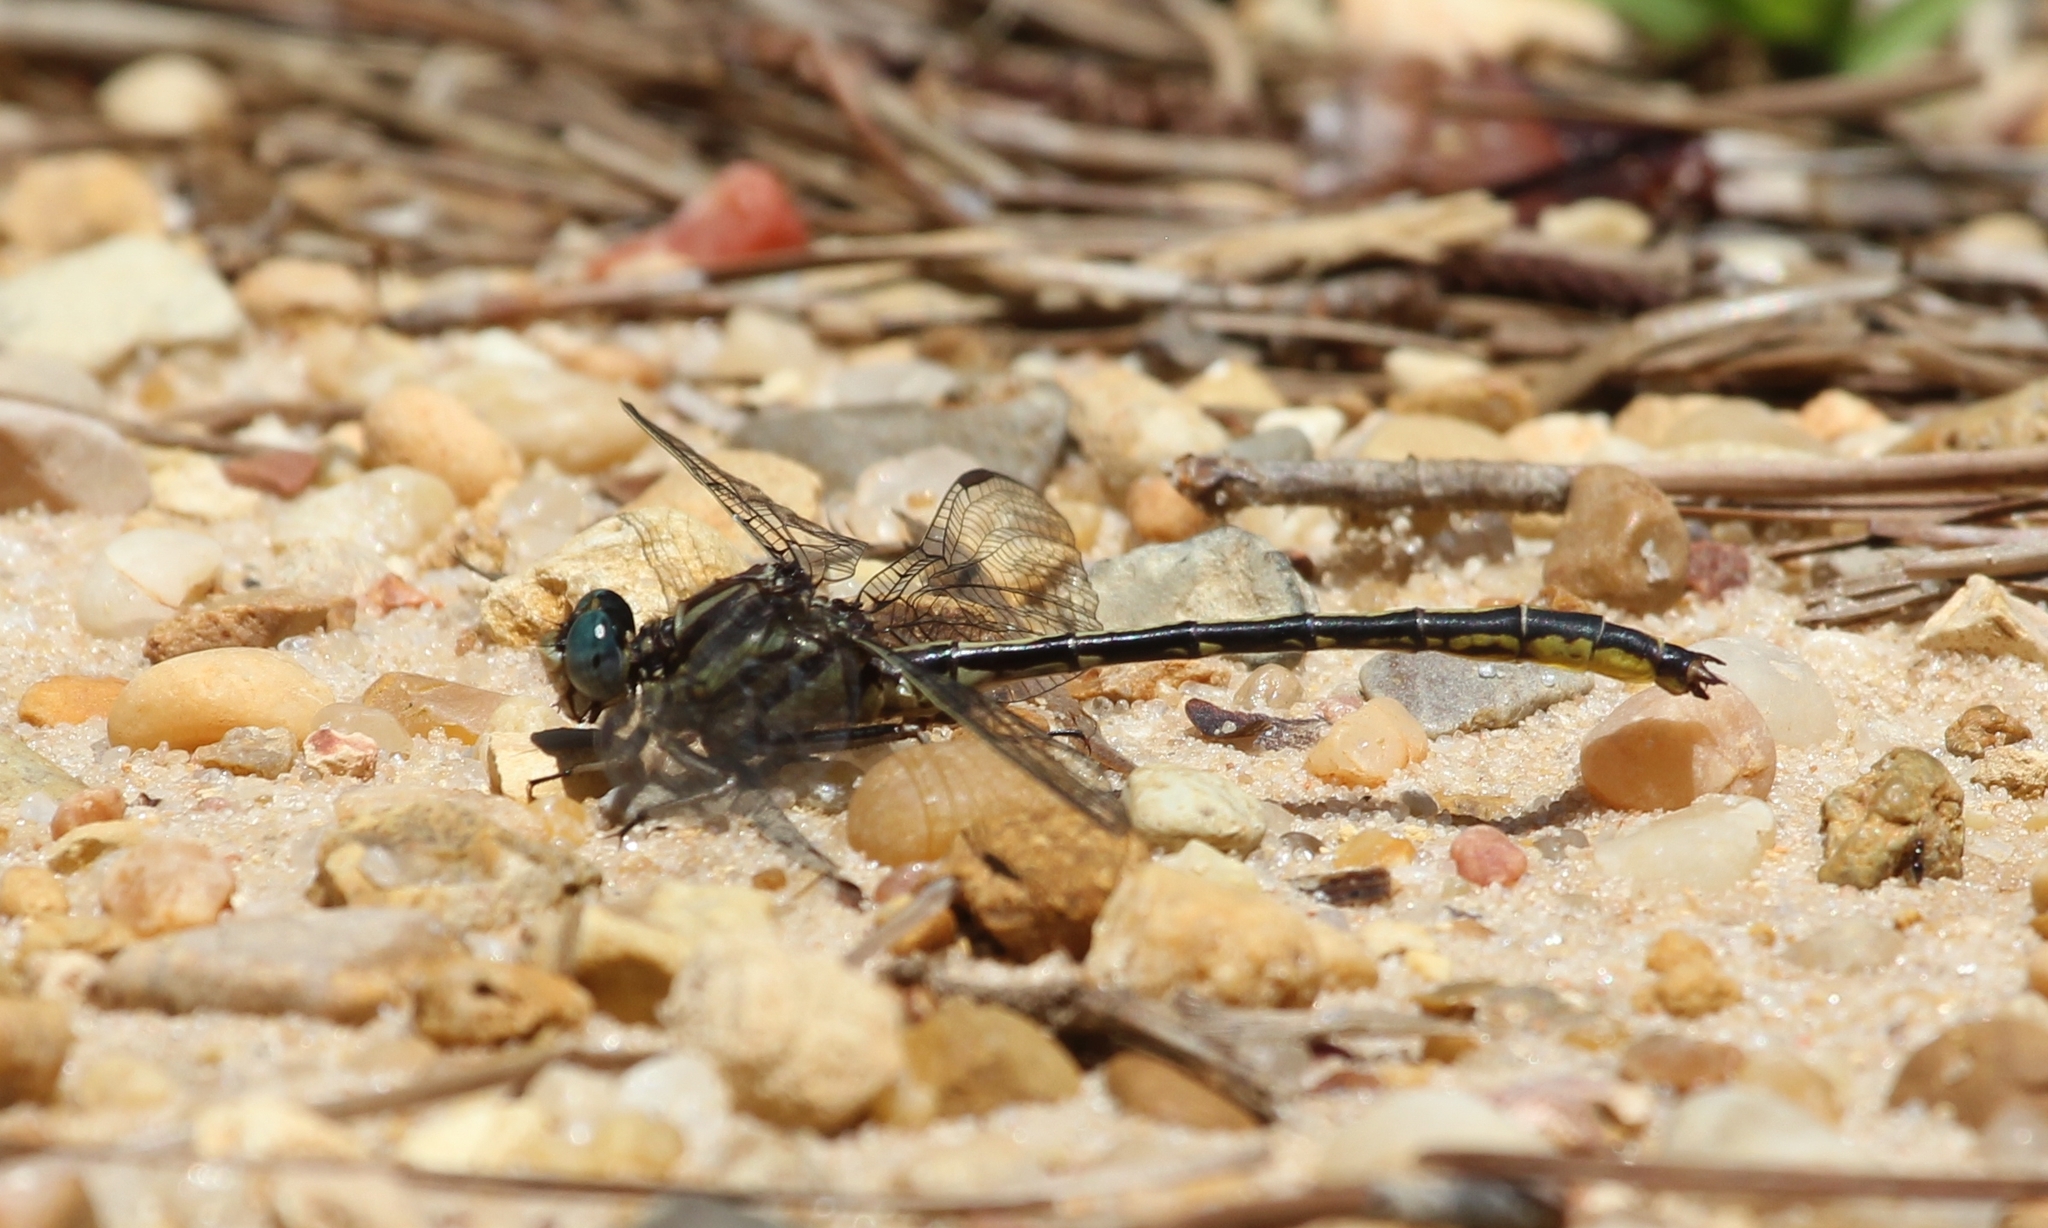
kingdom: Animalia
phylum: Arthropoda
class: Insecta
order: Odonata
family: Gomphidae
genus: Phanogomphus
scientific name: Phanogomphus hodgesi
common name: Hodges' clubtail
